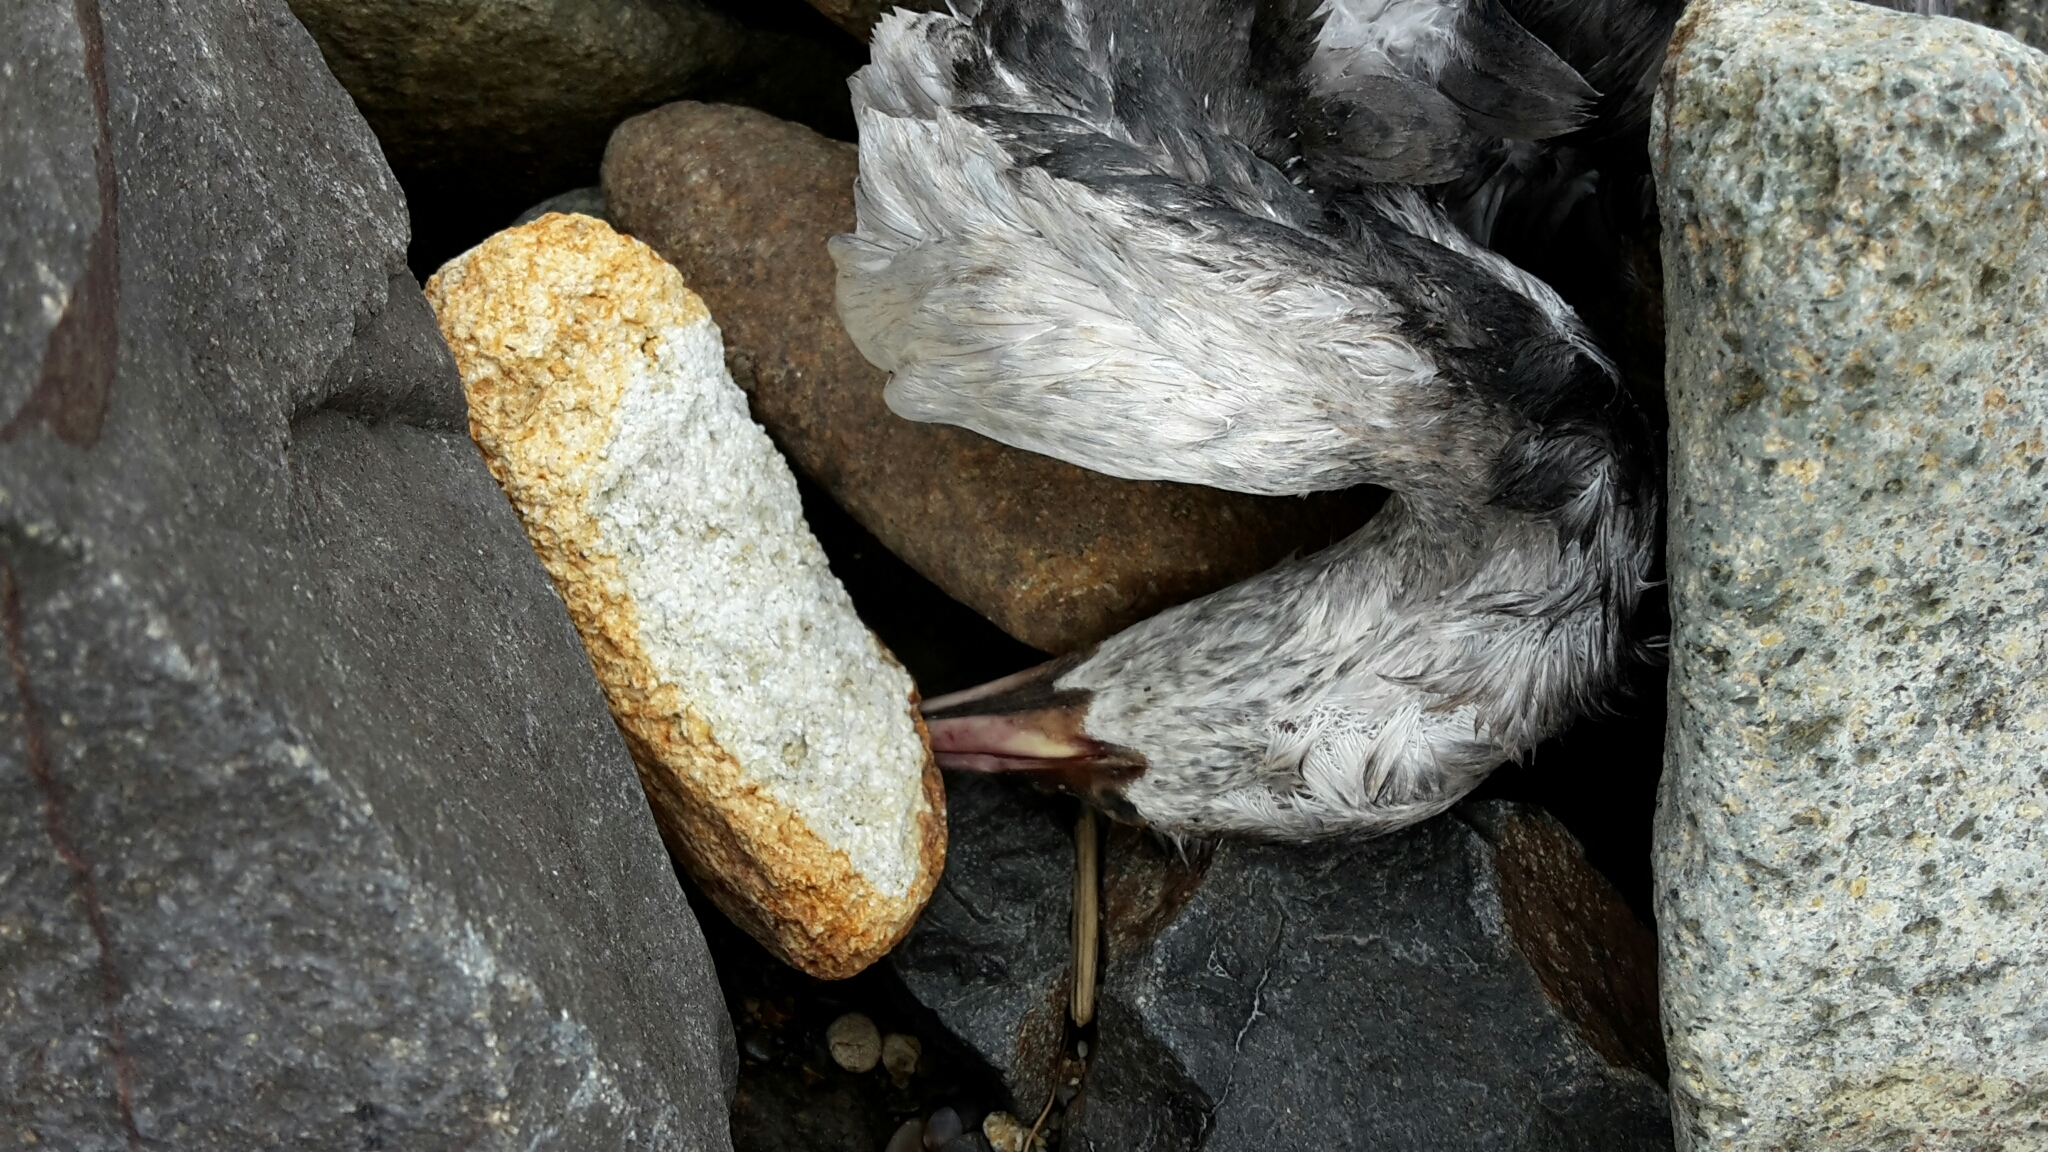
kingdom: Animalia
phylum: Chordata
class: Aves
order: Suliformes
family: Phalacrocoracidae
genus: Phalacrocorax
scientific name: Phalacrocorax punctatus
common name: Spotted shag
